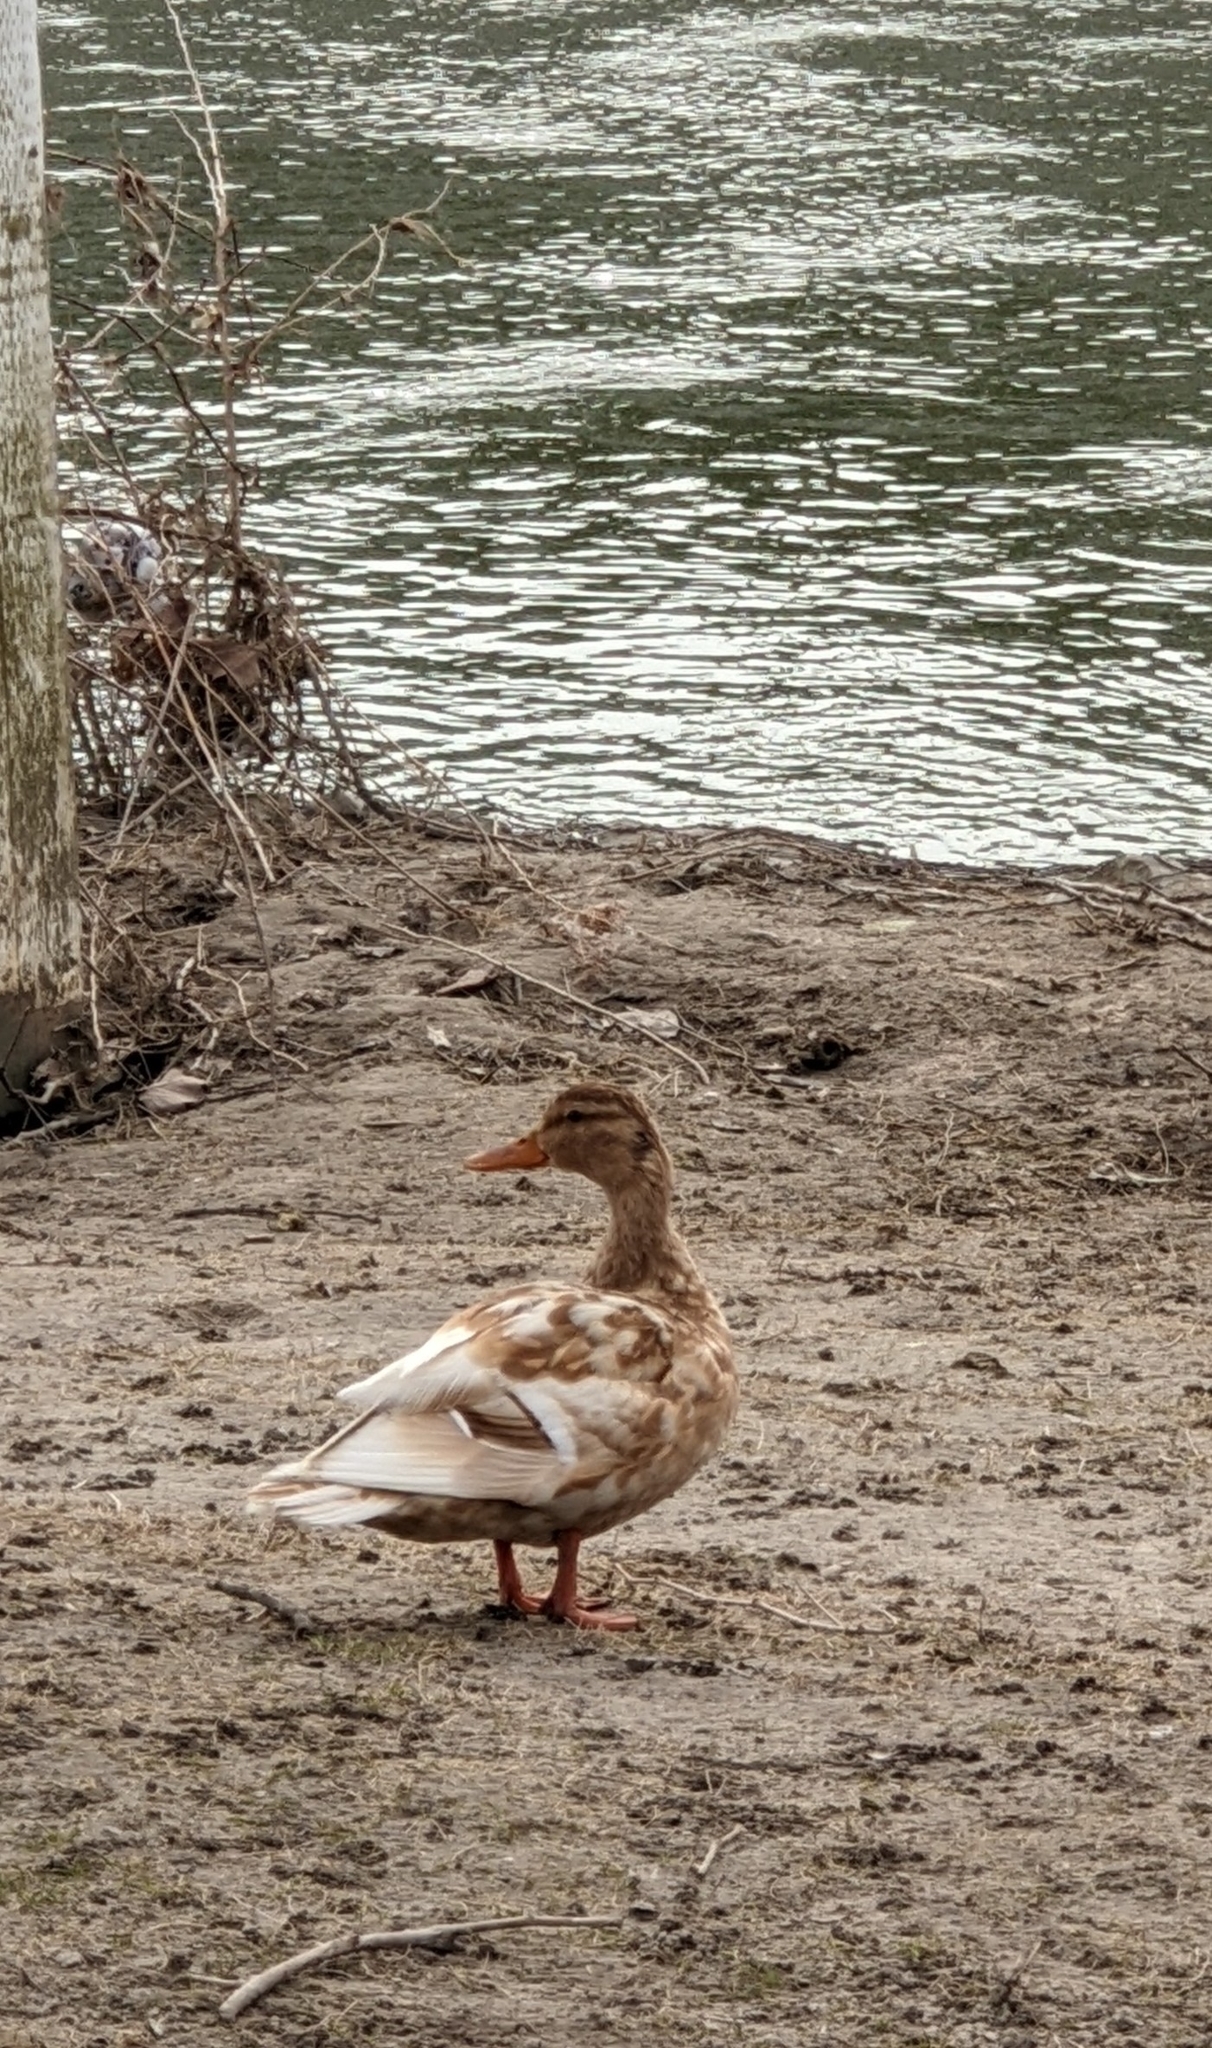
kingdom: Animalia
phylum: Chordata
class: Aves
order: Anseriformes
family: Anatidae
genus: Anas
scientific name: Anas platyrhynchos
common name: Mallard
